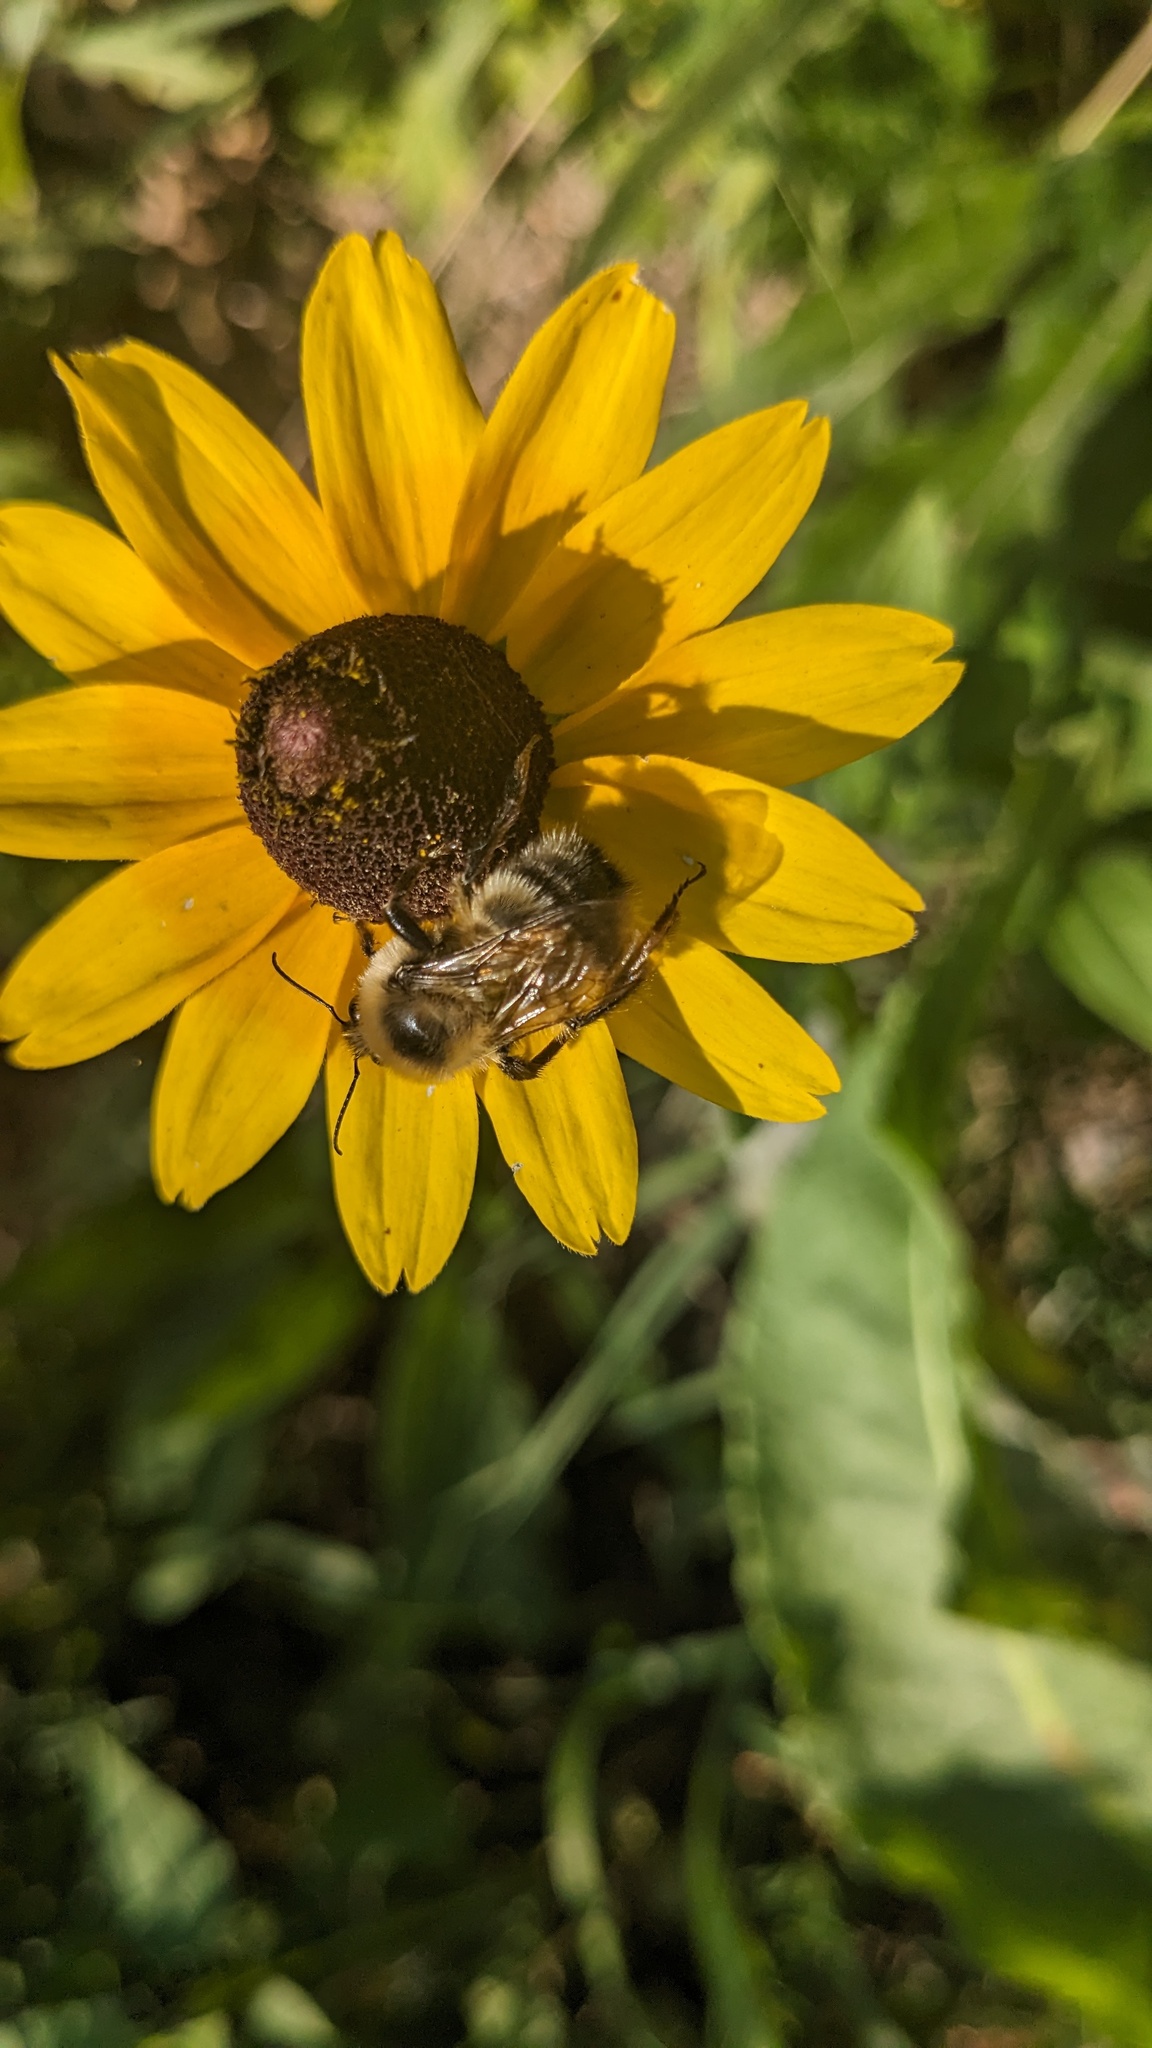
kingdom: Animalia
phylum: Arthropoda
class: Insecta
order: Hymenoptera
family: Apidae
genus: Bombus
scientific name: Bombus rufocinctus
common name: Red-belted bumble bee
